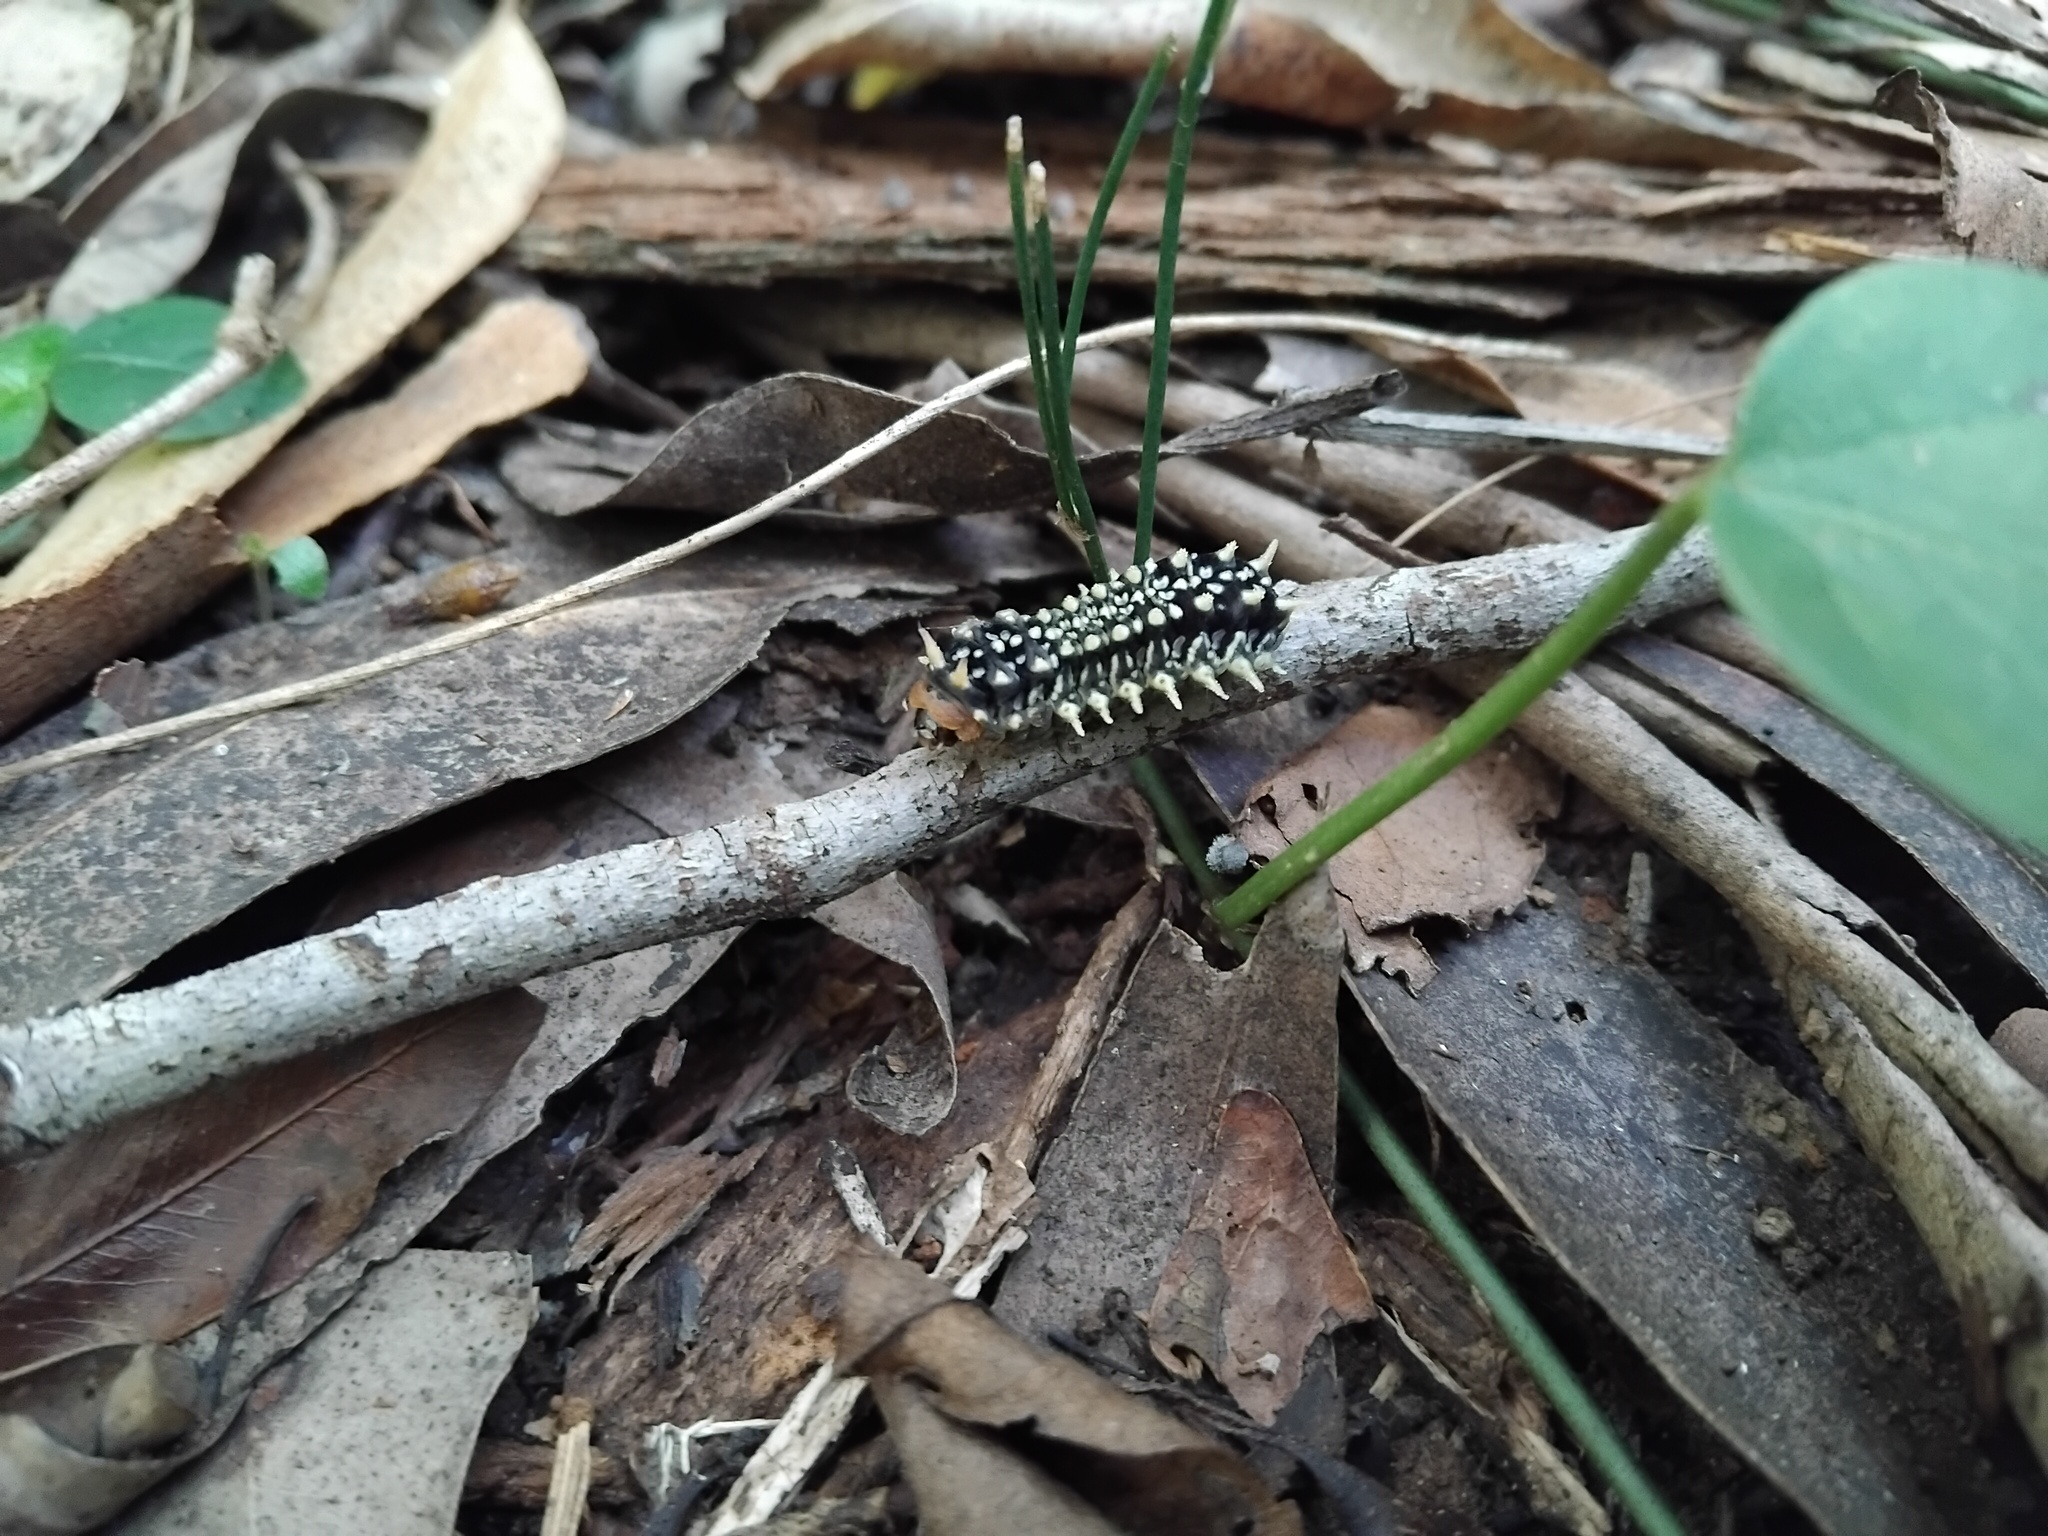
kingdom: Animalia
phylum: Arthropoda
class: Insecta
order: Lepidoptera
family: Limacodidae
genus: Doratifera
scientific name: Doratifera casta
